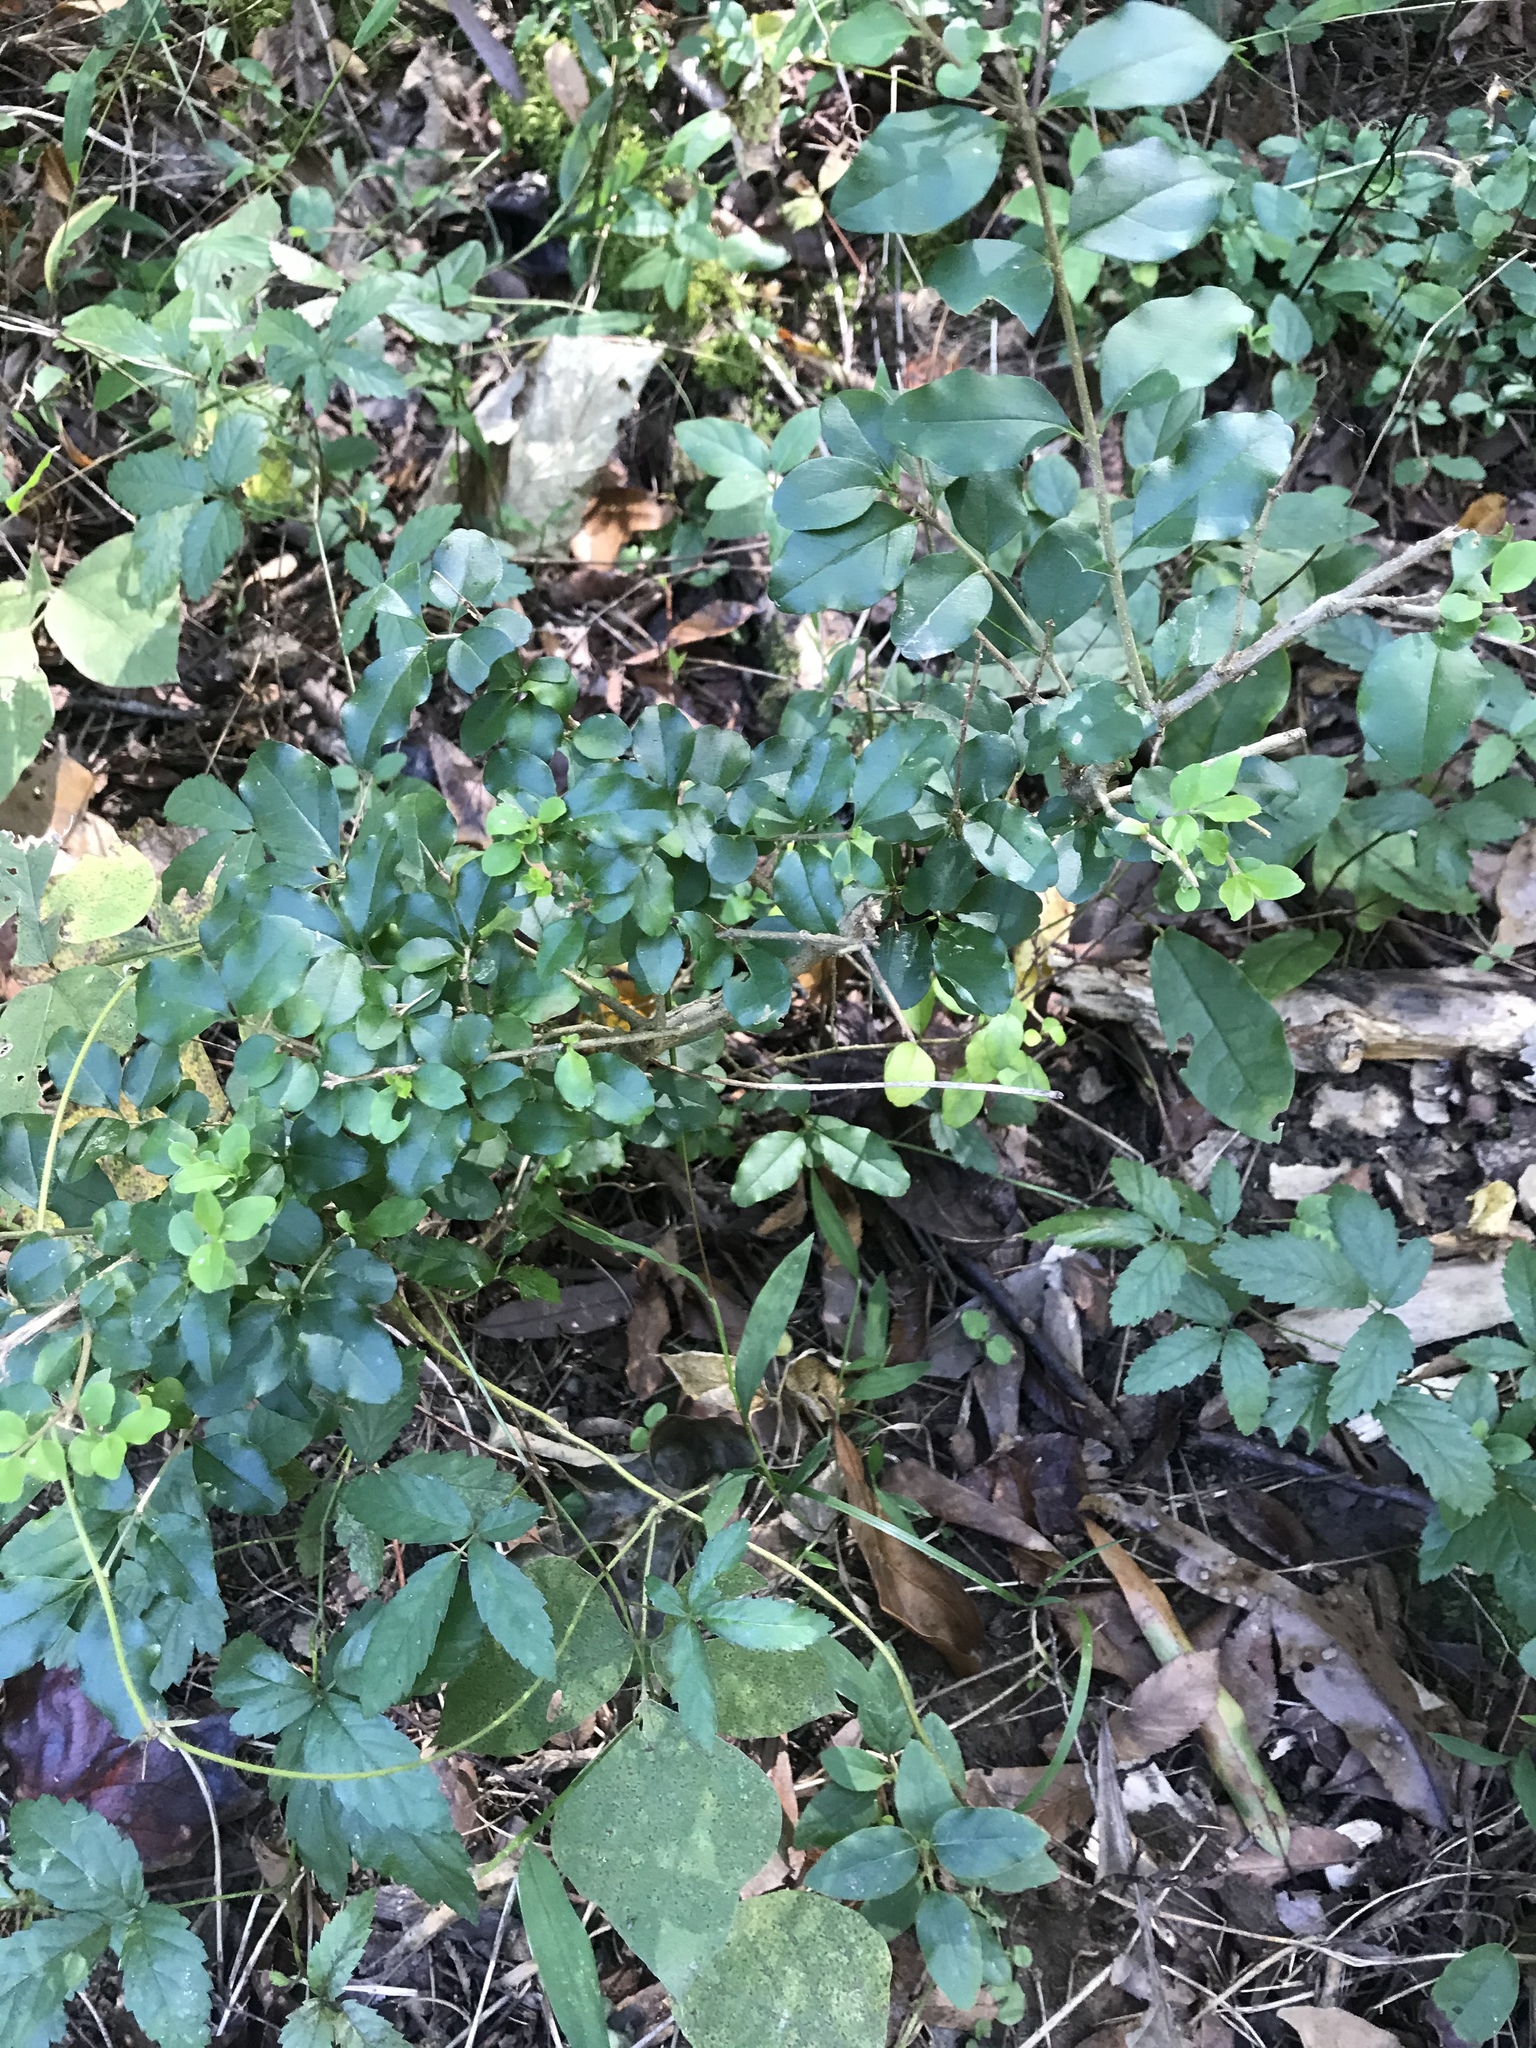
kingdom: Plantae
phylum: Tracheophyta
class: Magnoliopsida
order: Lamiales
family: Oleaceae
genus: Ligustrum
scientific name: Ligustrum sinense
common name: Chinese privet
